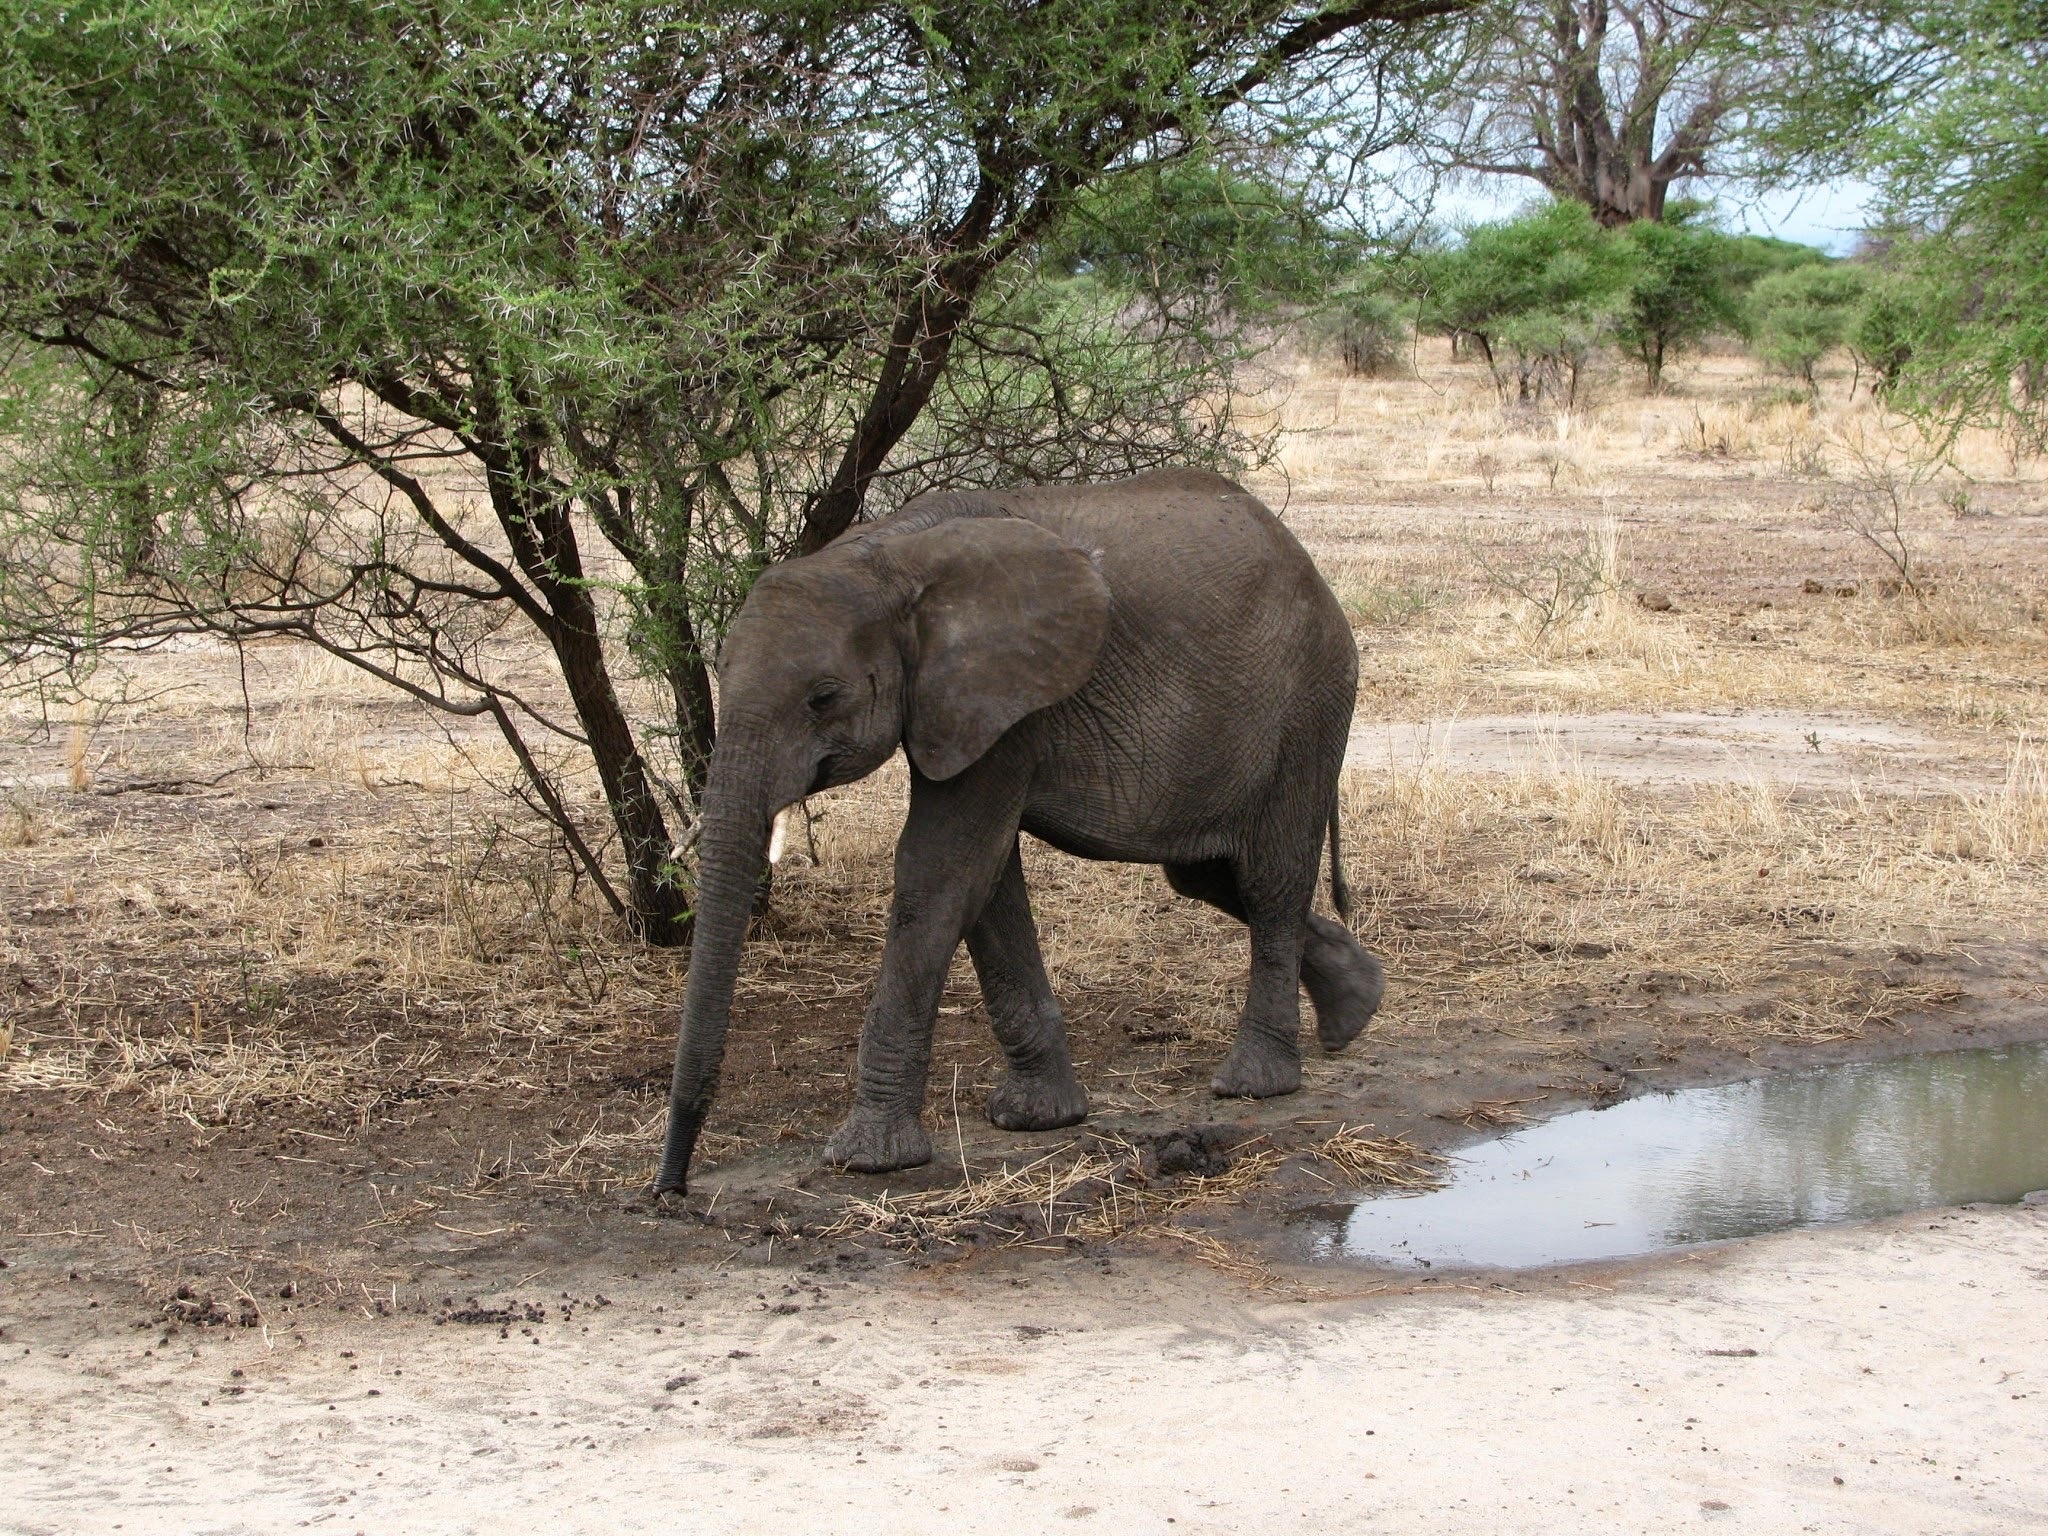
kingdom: Animalia
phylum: Chordata
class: Mammalia
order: Proboscidea
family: Elephantidae
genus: Loxodonta
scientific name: Loxodonta africana
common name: African elephant
